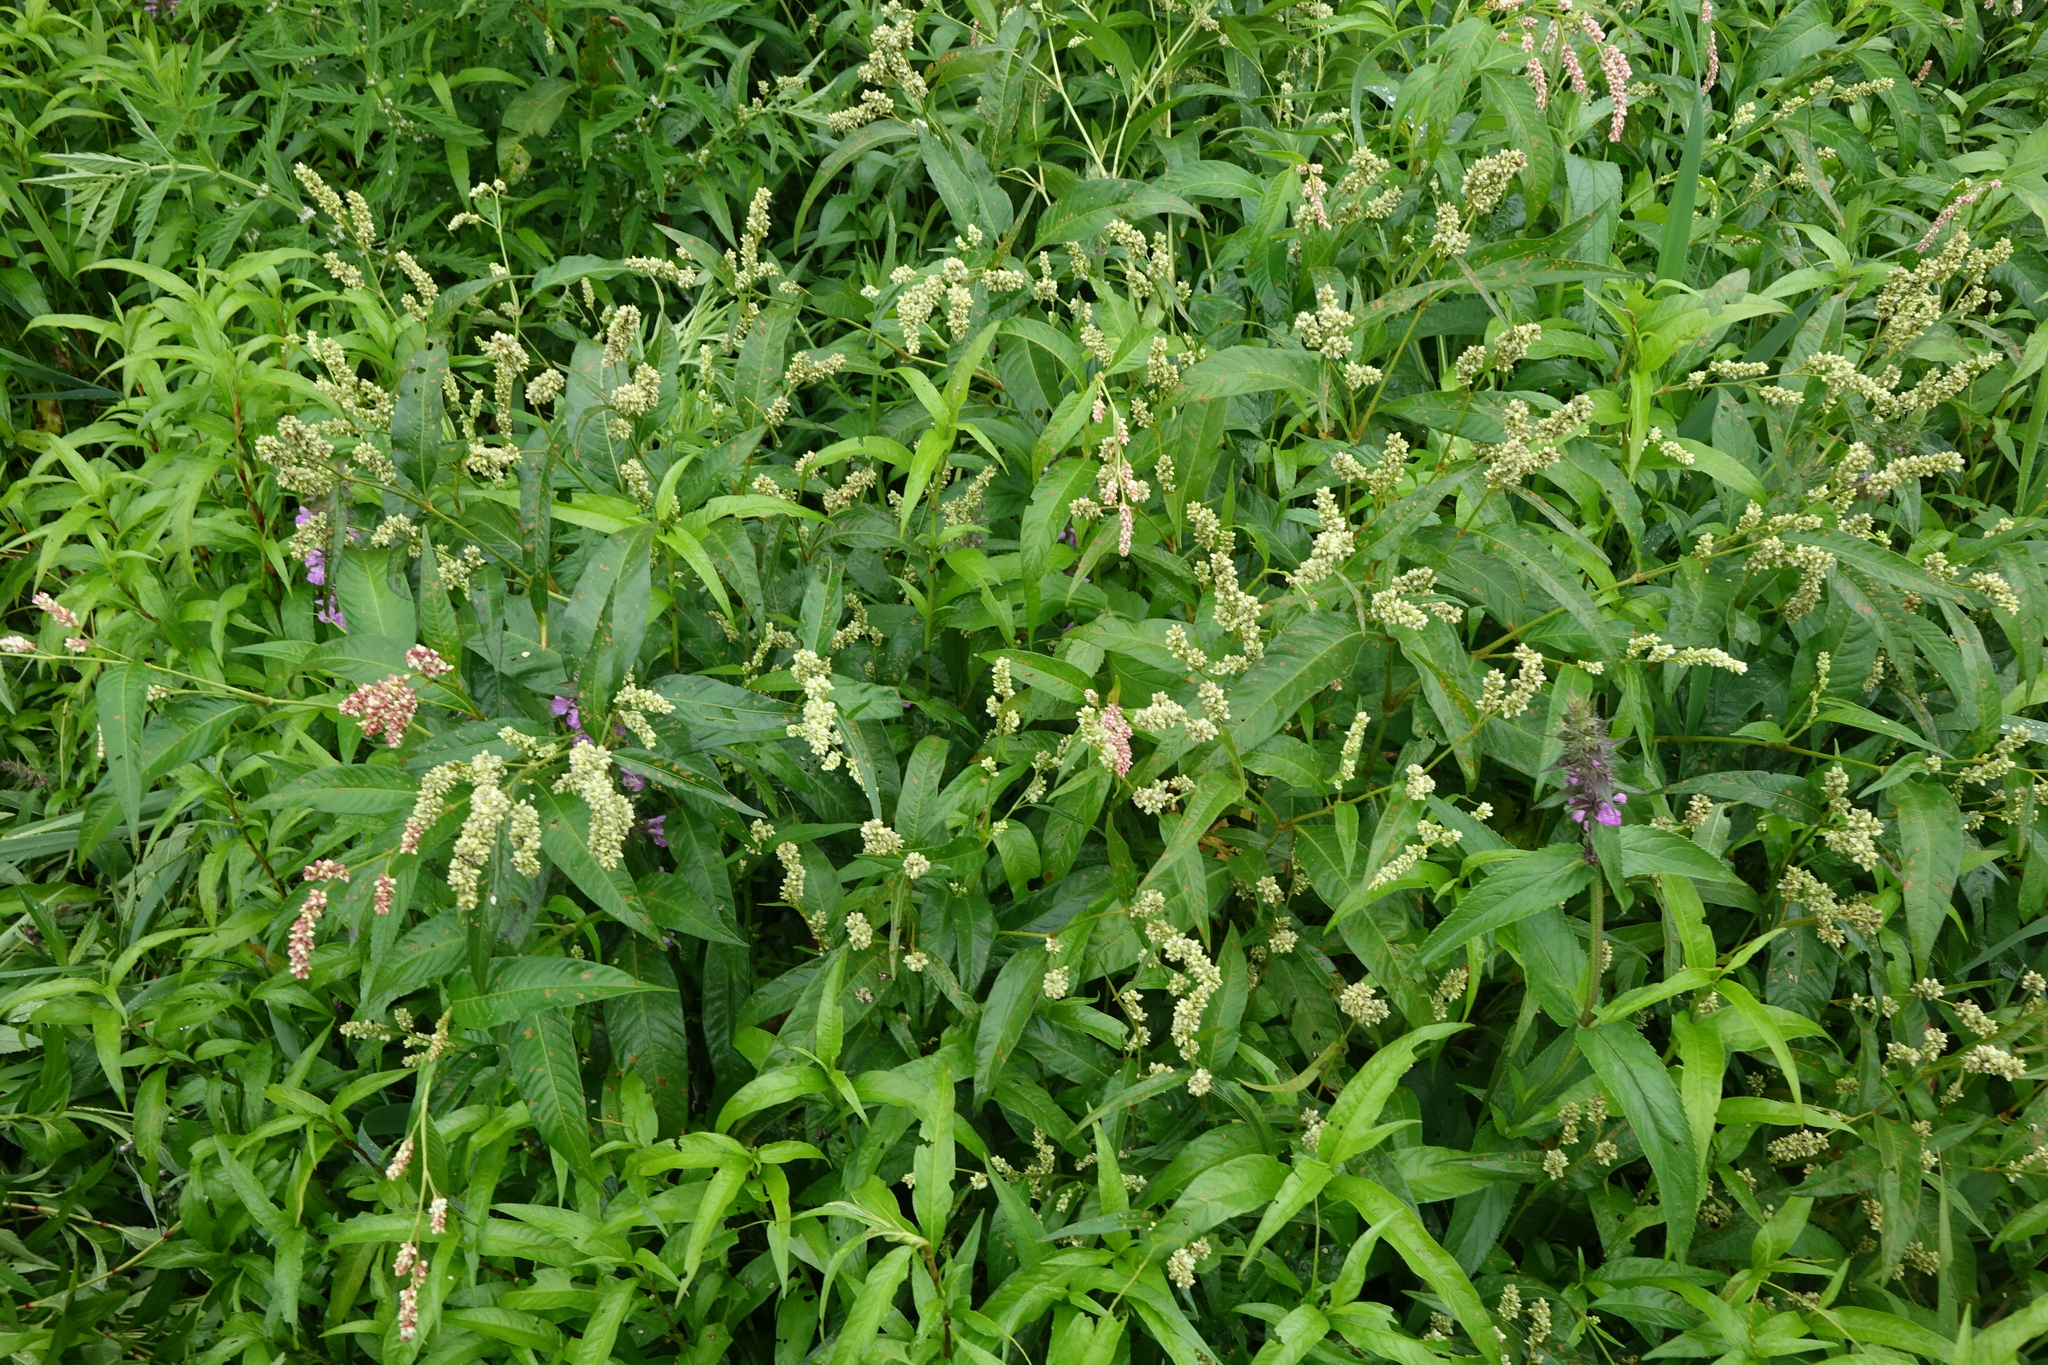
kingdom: Plantae
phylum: Tracheophyta
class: Magnoliopsida
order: Caryophyllales
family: Polygonaceae
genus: Persicaria
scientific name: Persicaria lapathifolia
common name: Curlytop knotweed
